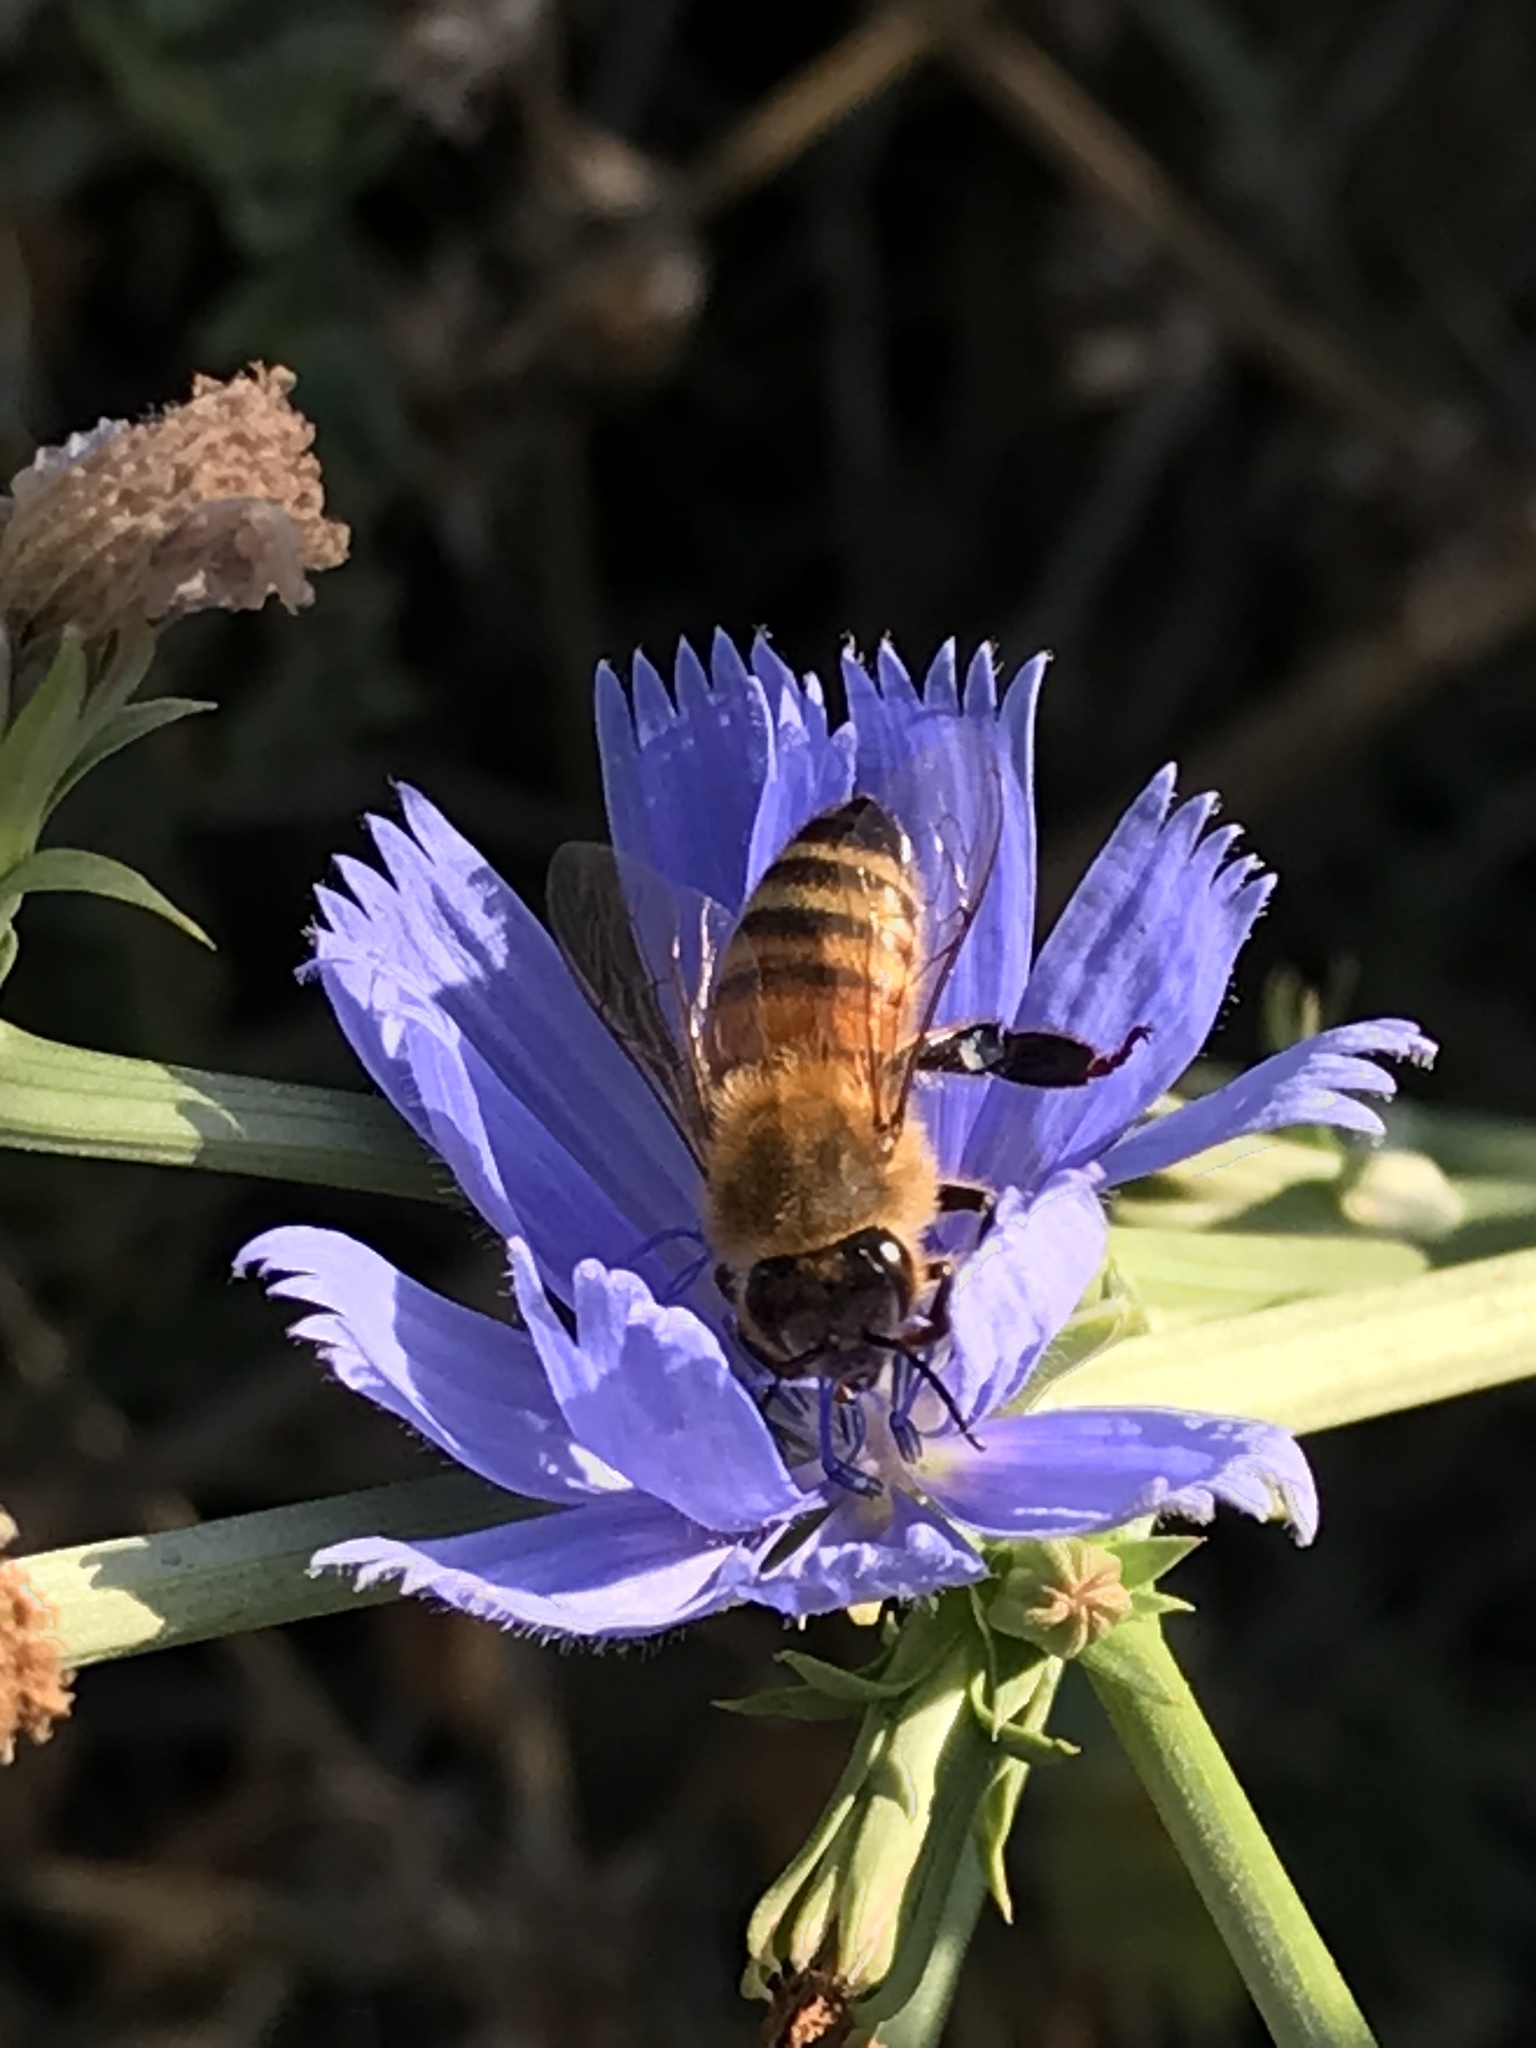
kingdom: Animalia
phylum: Arthropoda
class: Insecta
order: Hymenoptera
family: Apidae
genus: Apis
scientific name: Apis mellifera
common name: Honey bee
